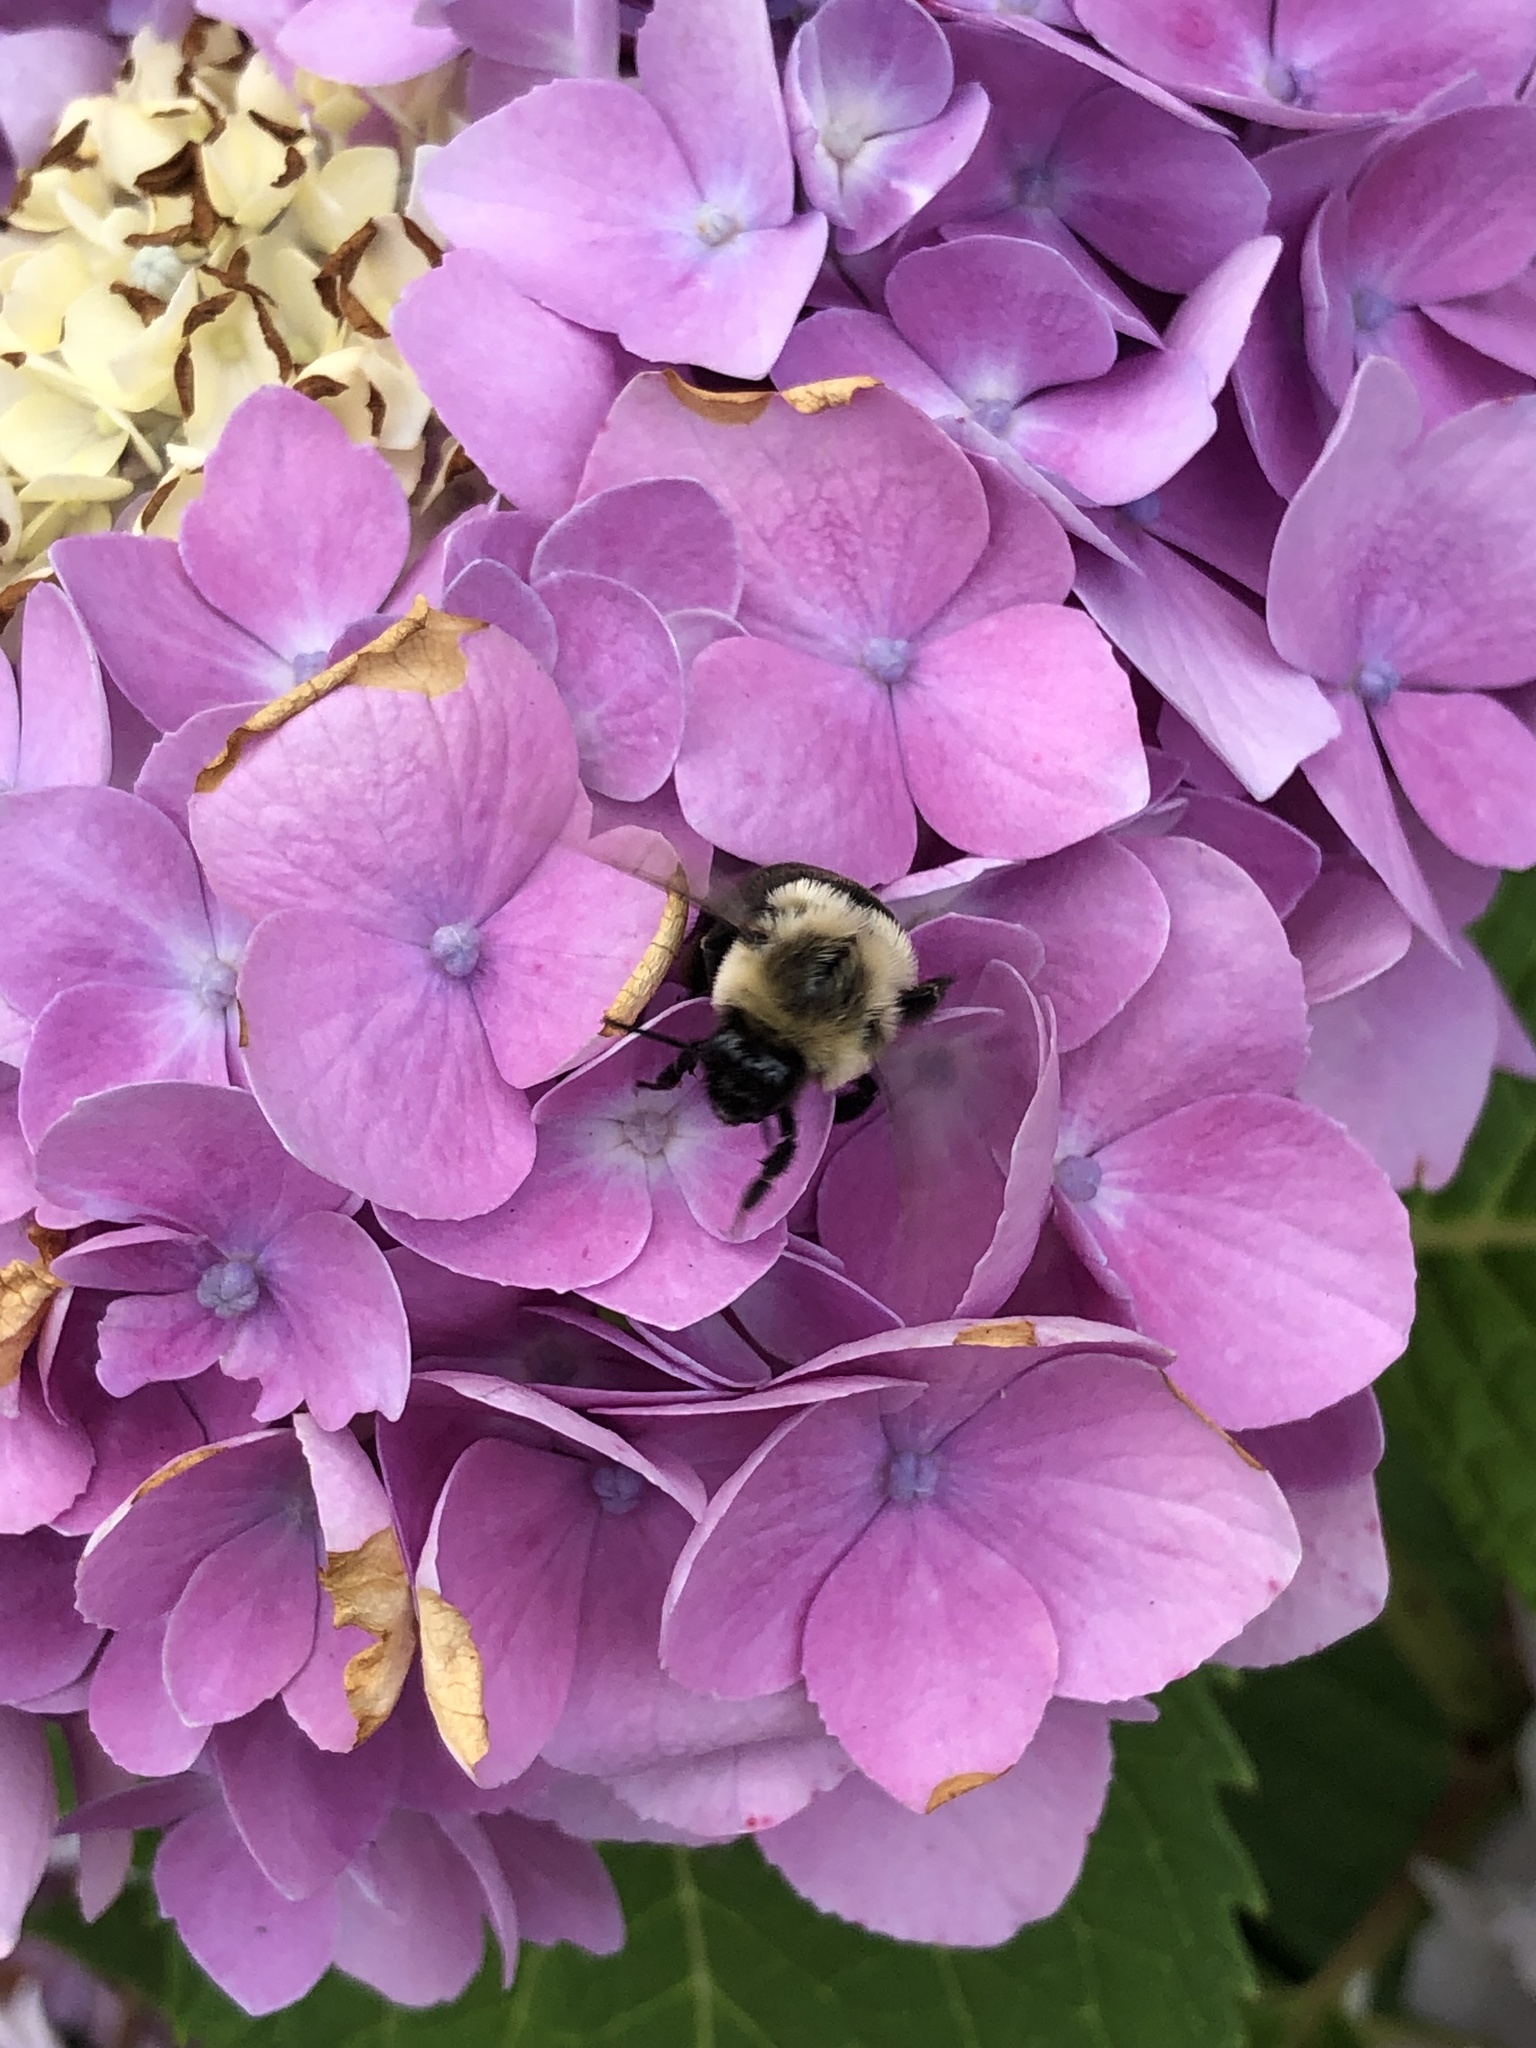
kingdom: Animalia
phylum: Arthropoda
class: Insecta
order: Hymenoptera
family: Apidae
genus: Bombus
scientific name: Bombus impatiens
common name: Common eastern bumble bee
